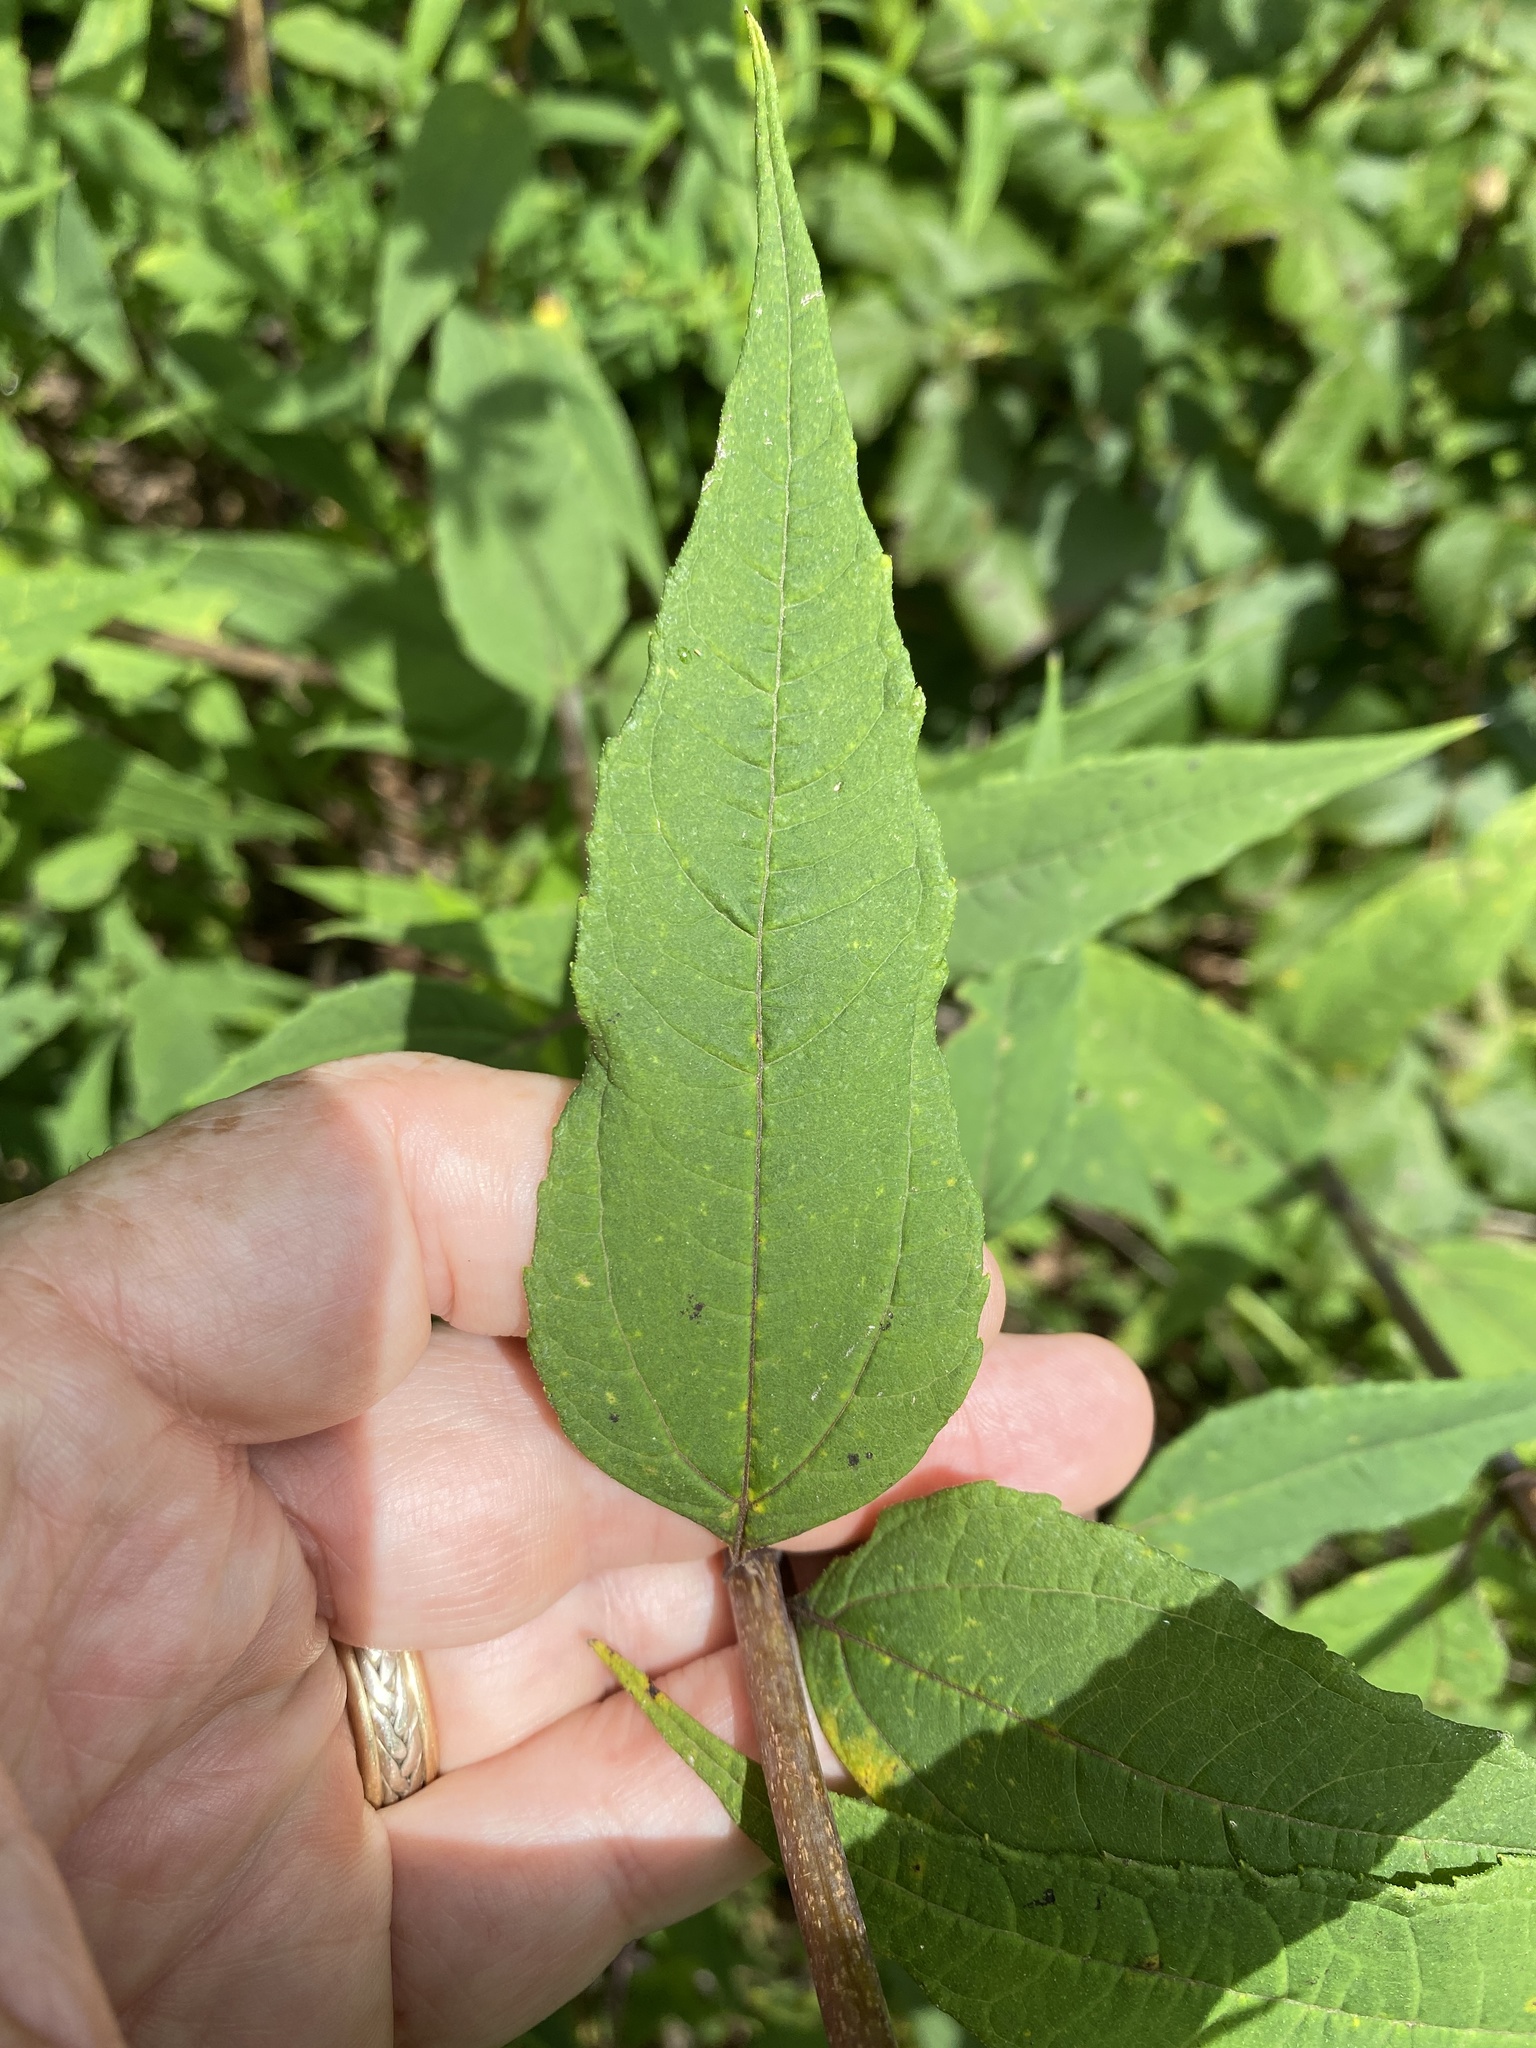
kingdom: Plantae
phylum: Tracheophyta
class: Magnoliopsida
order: Asterales
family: Asteraceae
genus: Helianthus
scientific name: Helianthus microcephalus
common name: Woodland sunflower
